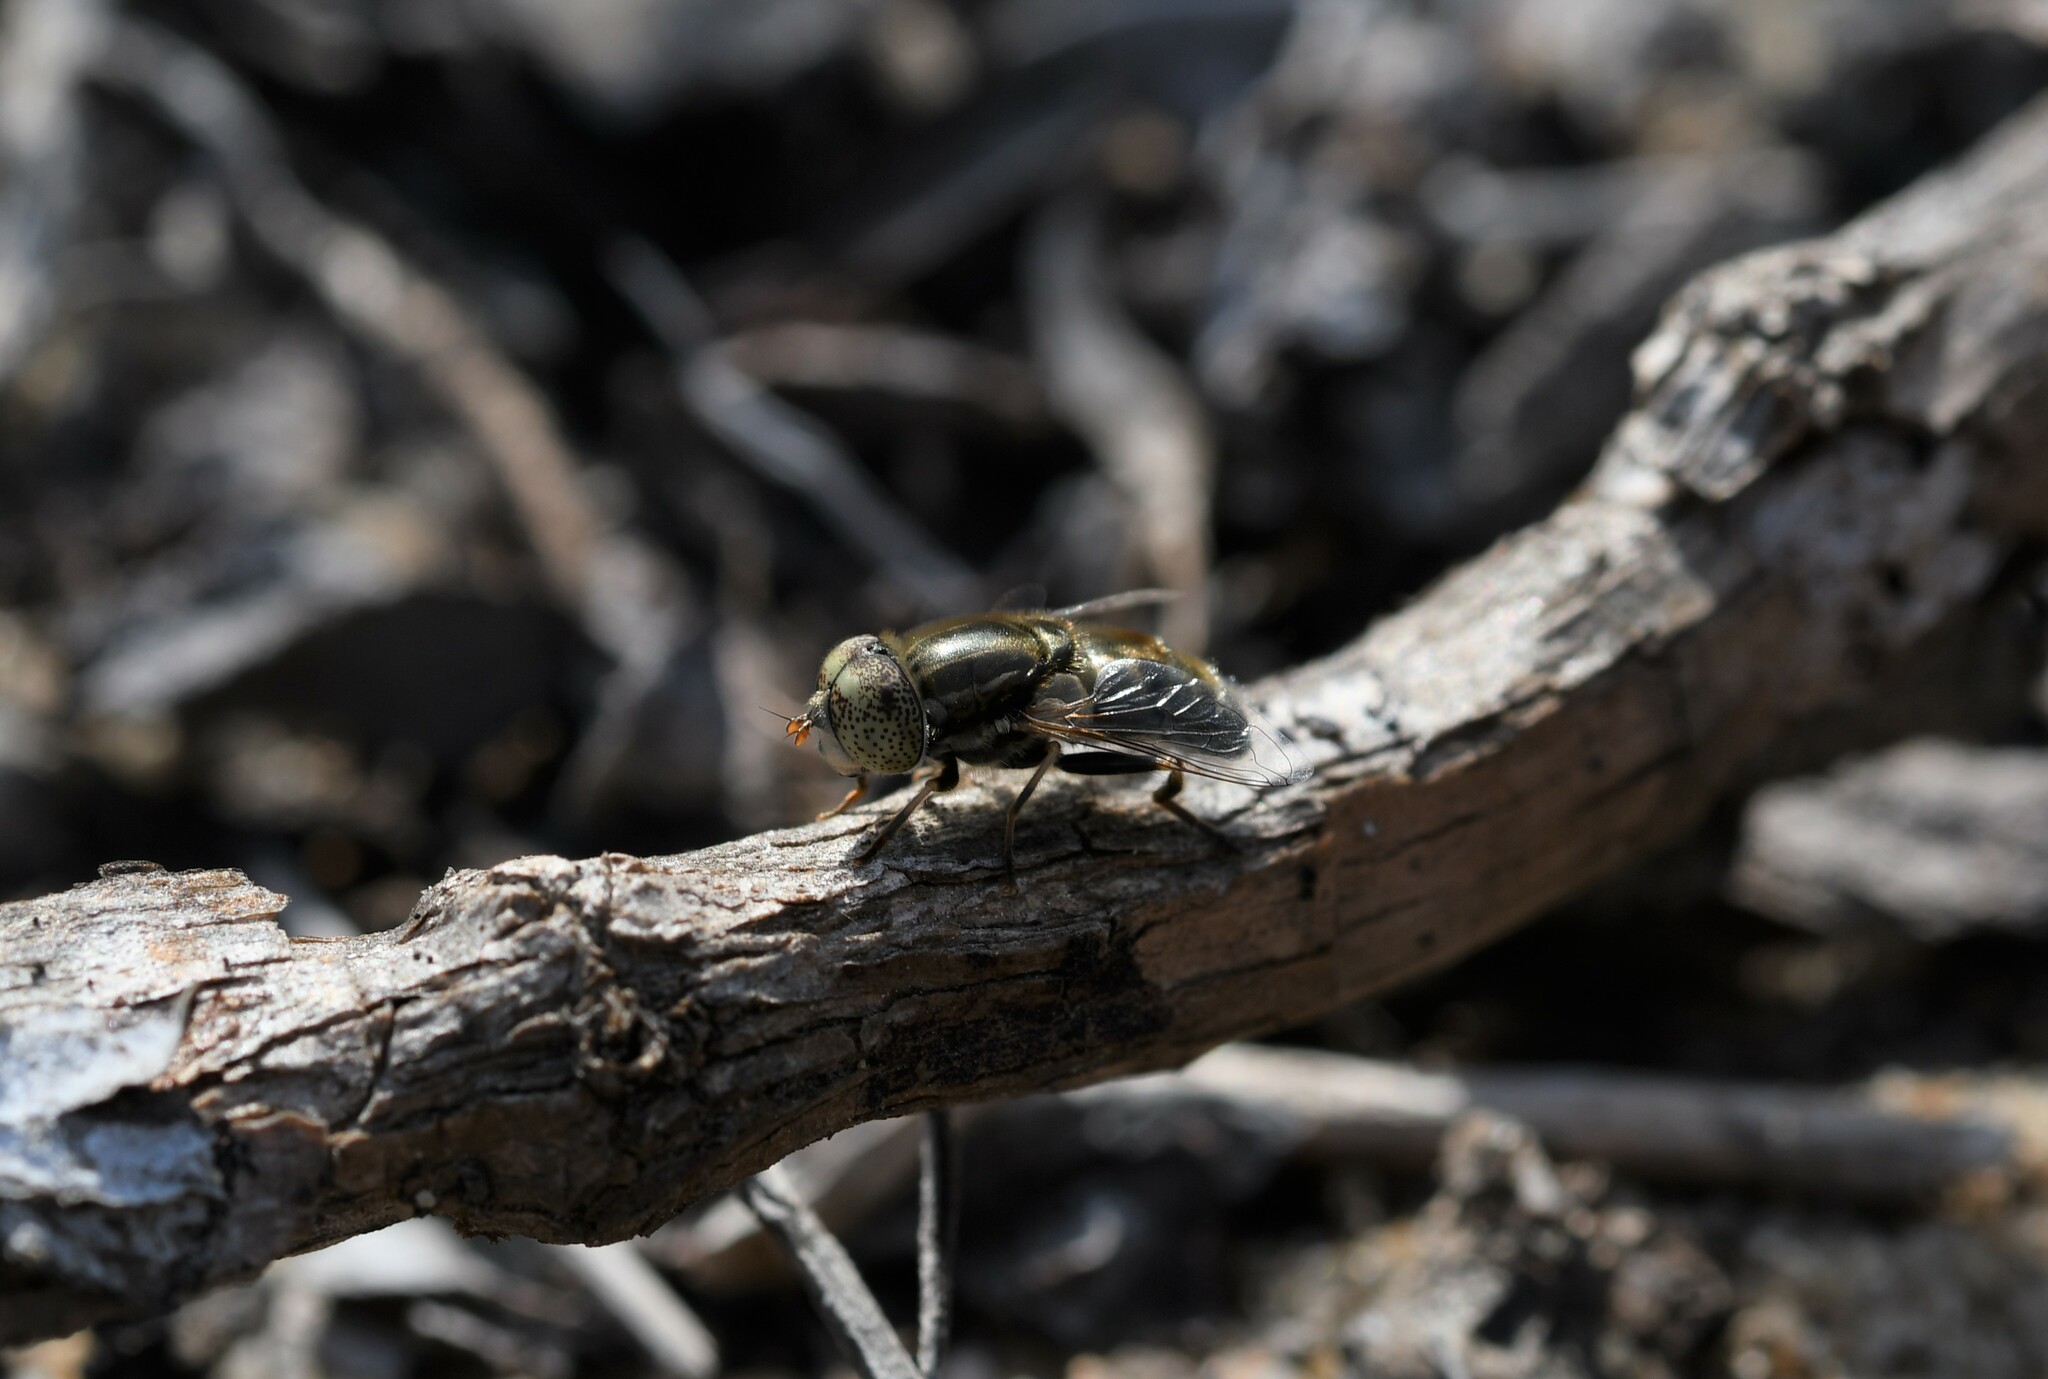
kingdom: Animalia
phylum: Arthropoda
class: Insecta
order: Diptera
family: Syrphidae
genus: Eristalinus
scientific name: Eristalinus aeneus
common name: Syrphid fly
